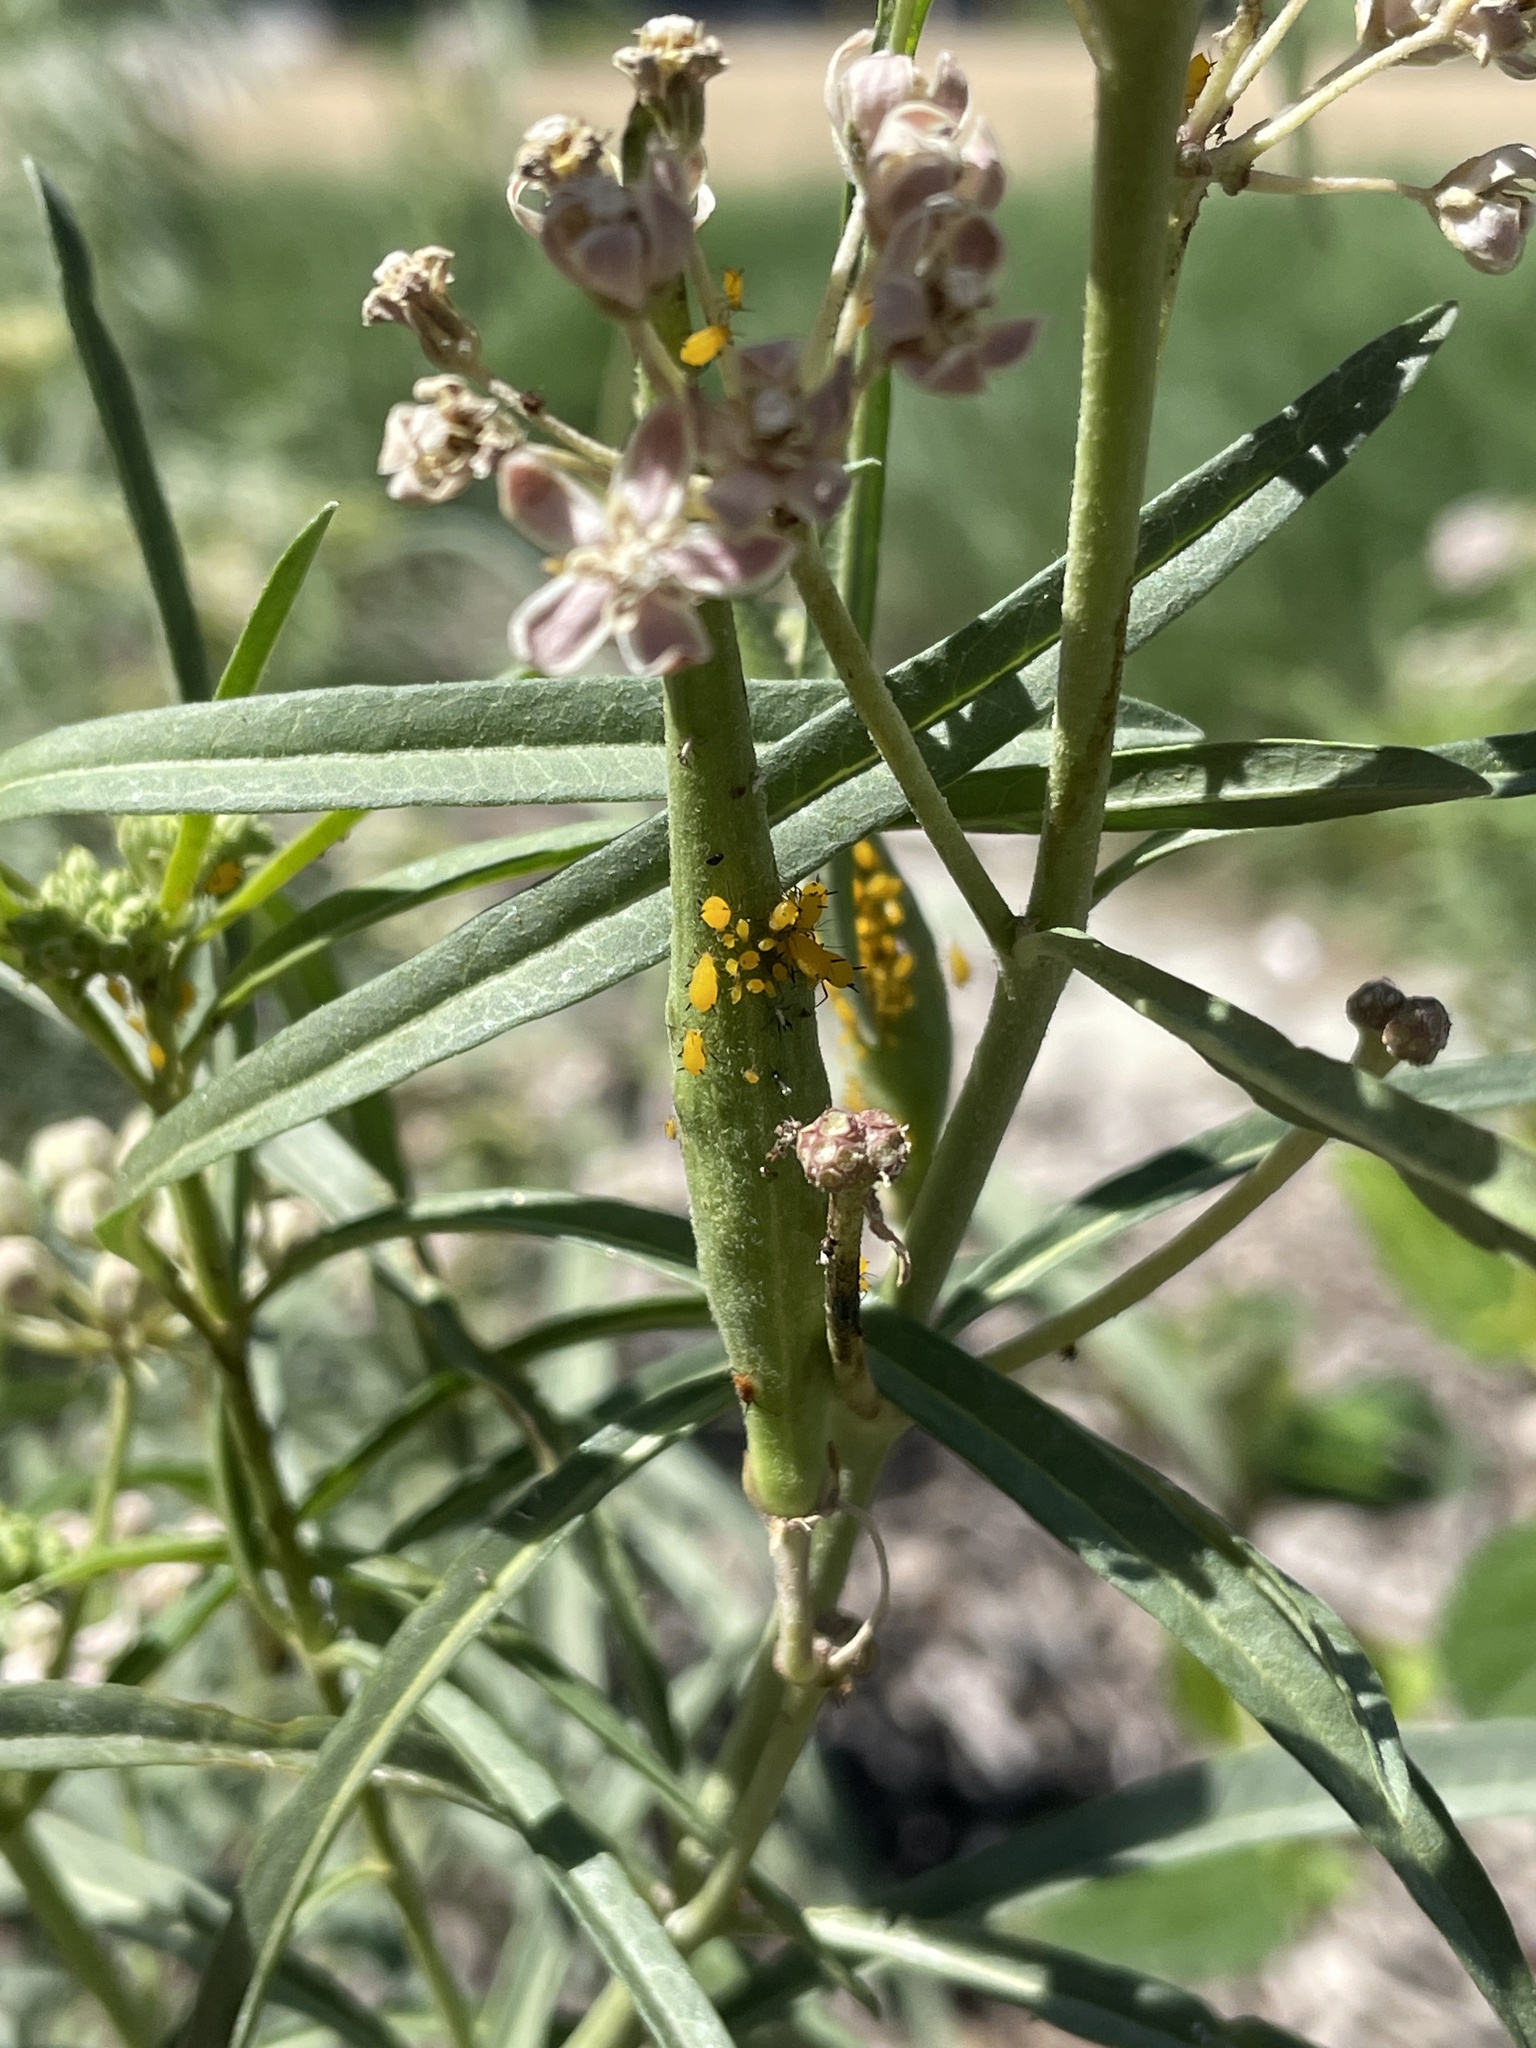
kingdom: Animalia
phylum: Arthropoda
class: Insecta
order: Hemiptera
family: Aphididae
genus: Aphis
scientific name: Aphis nerii
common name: Oleander aphid
